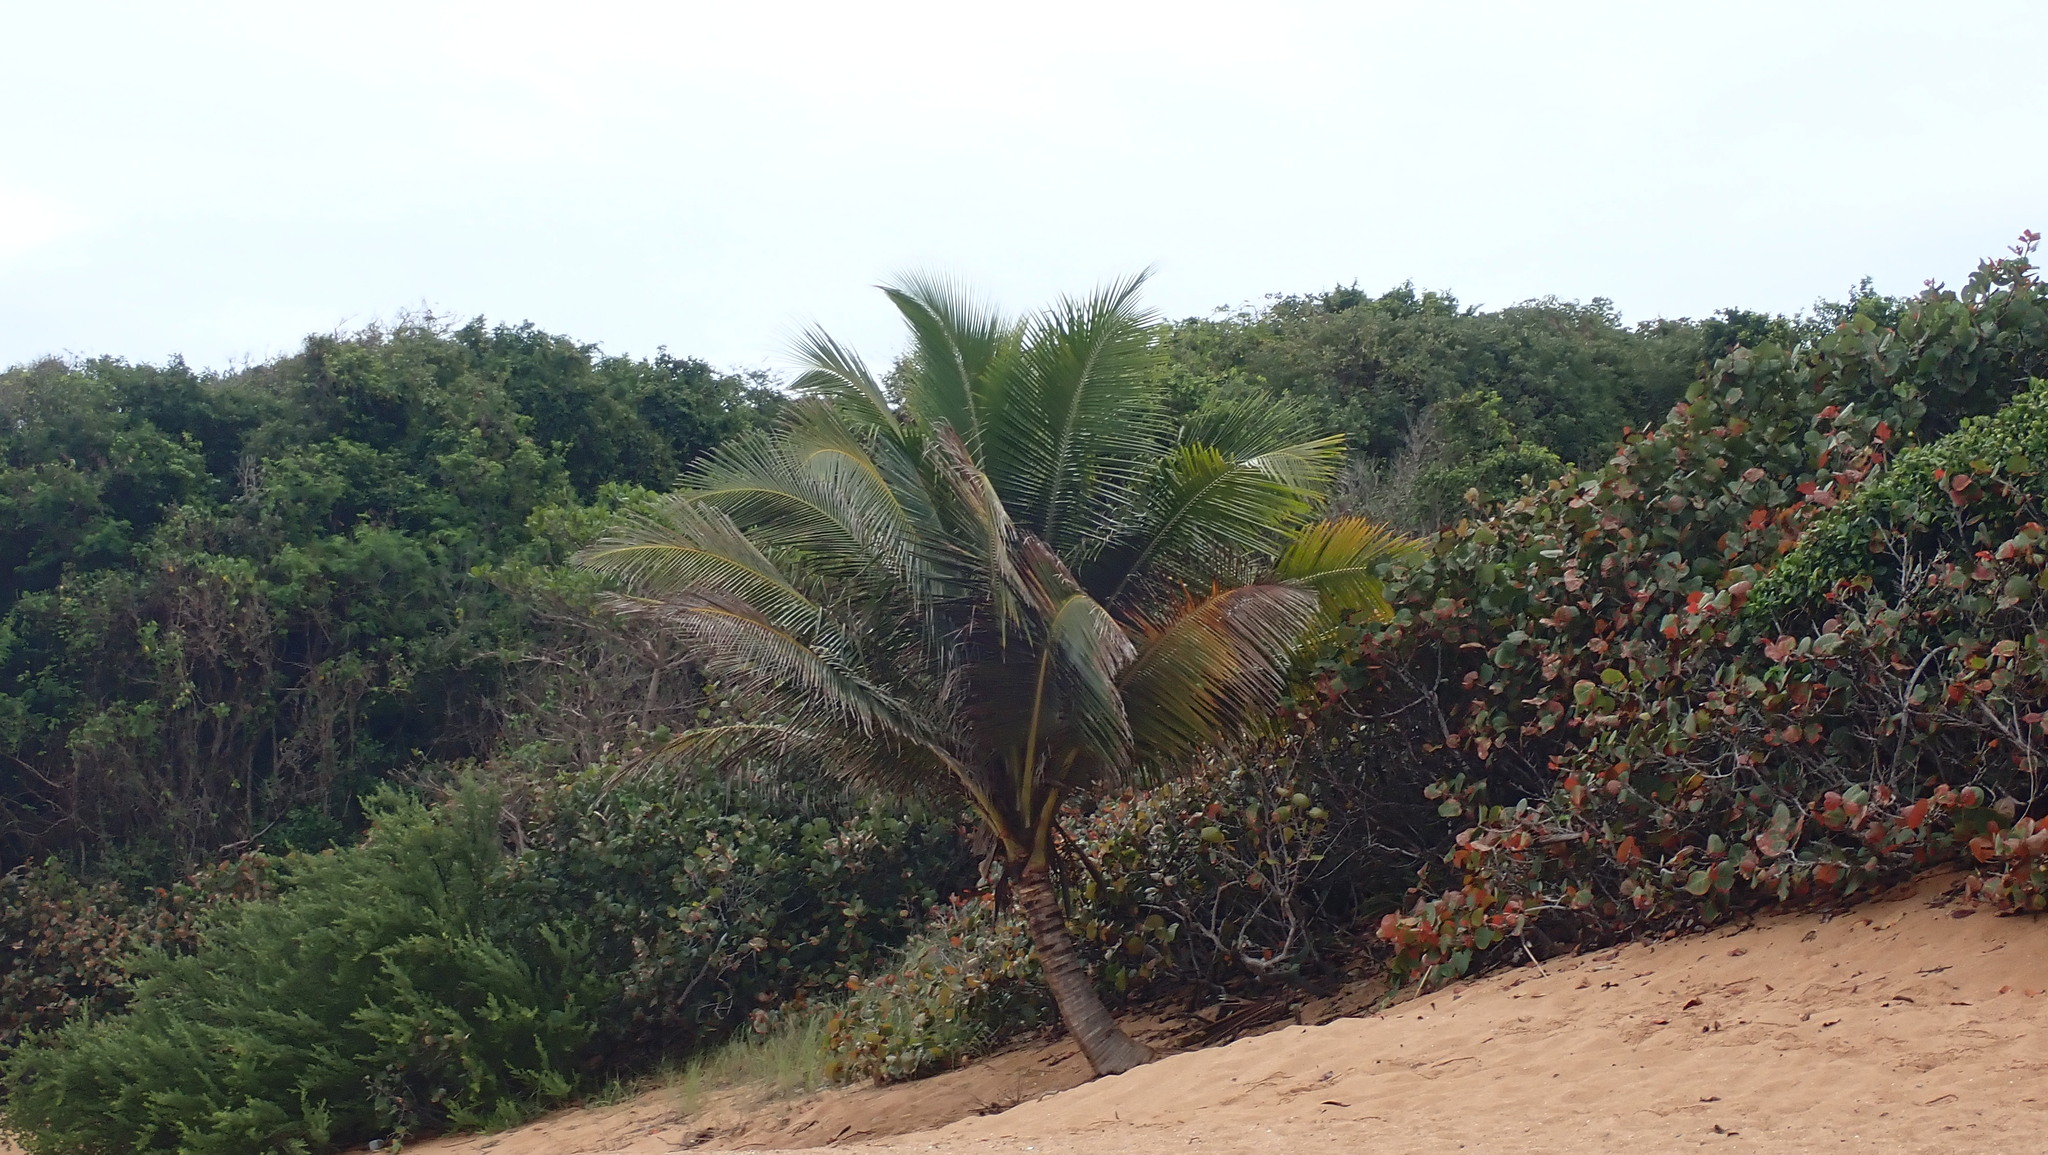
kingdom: Plantae
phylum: Tracheophyta
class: Liliopsida
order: Arecales
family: Arecaceae
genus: Cocos
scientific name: Cocos nucifera
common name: Coconut palm
